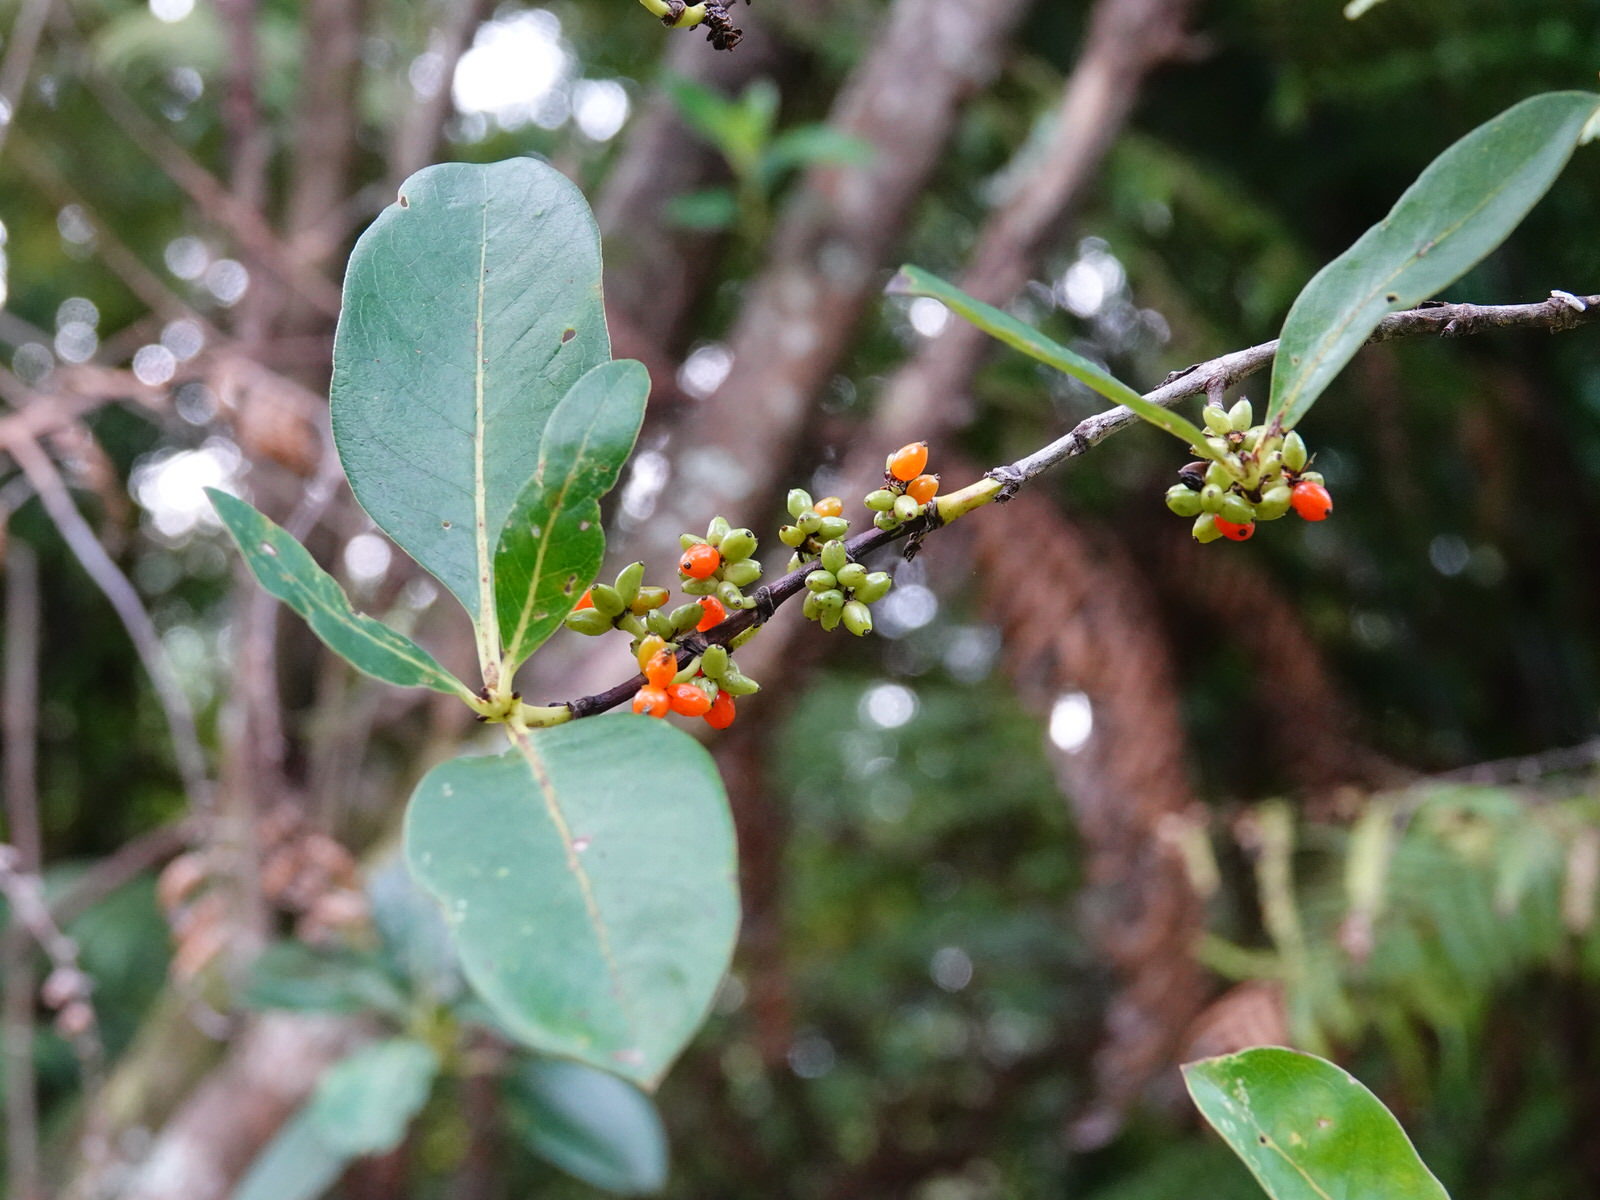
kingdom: Plantae
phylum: Tracheophyta
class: Magnoliopsida
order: Gentianales
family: Rubiaceae
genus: Coprosma
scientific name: Coprosma robusta
